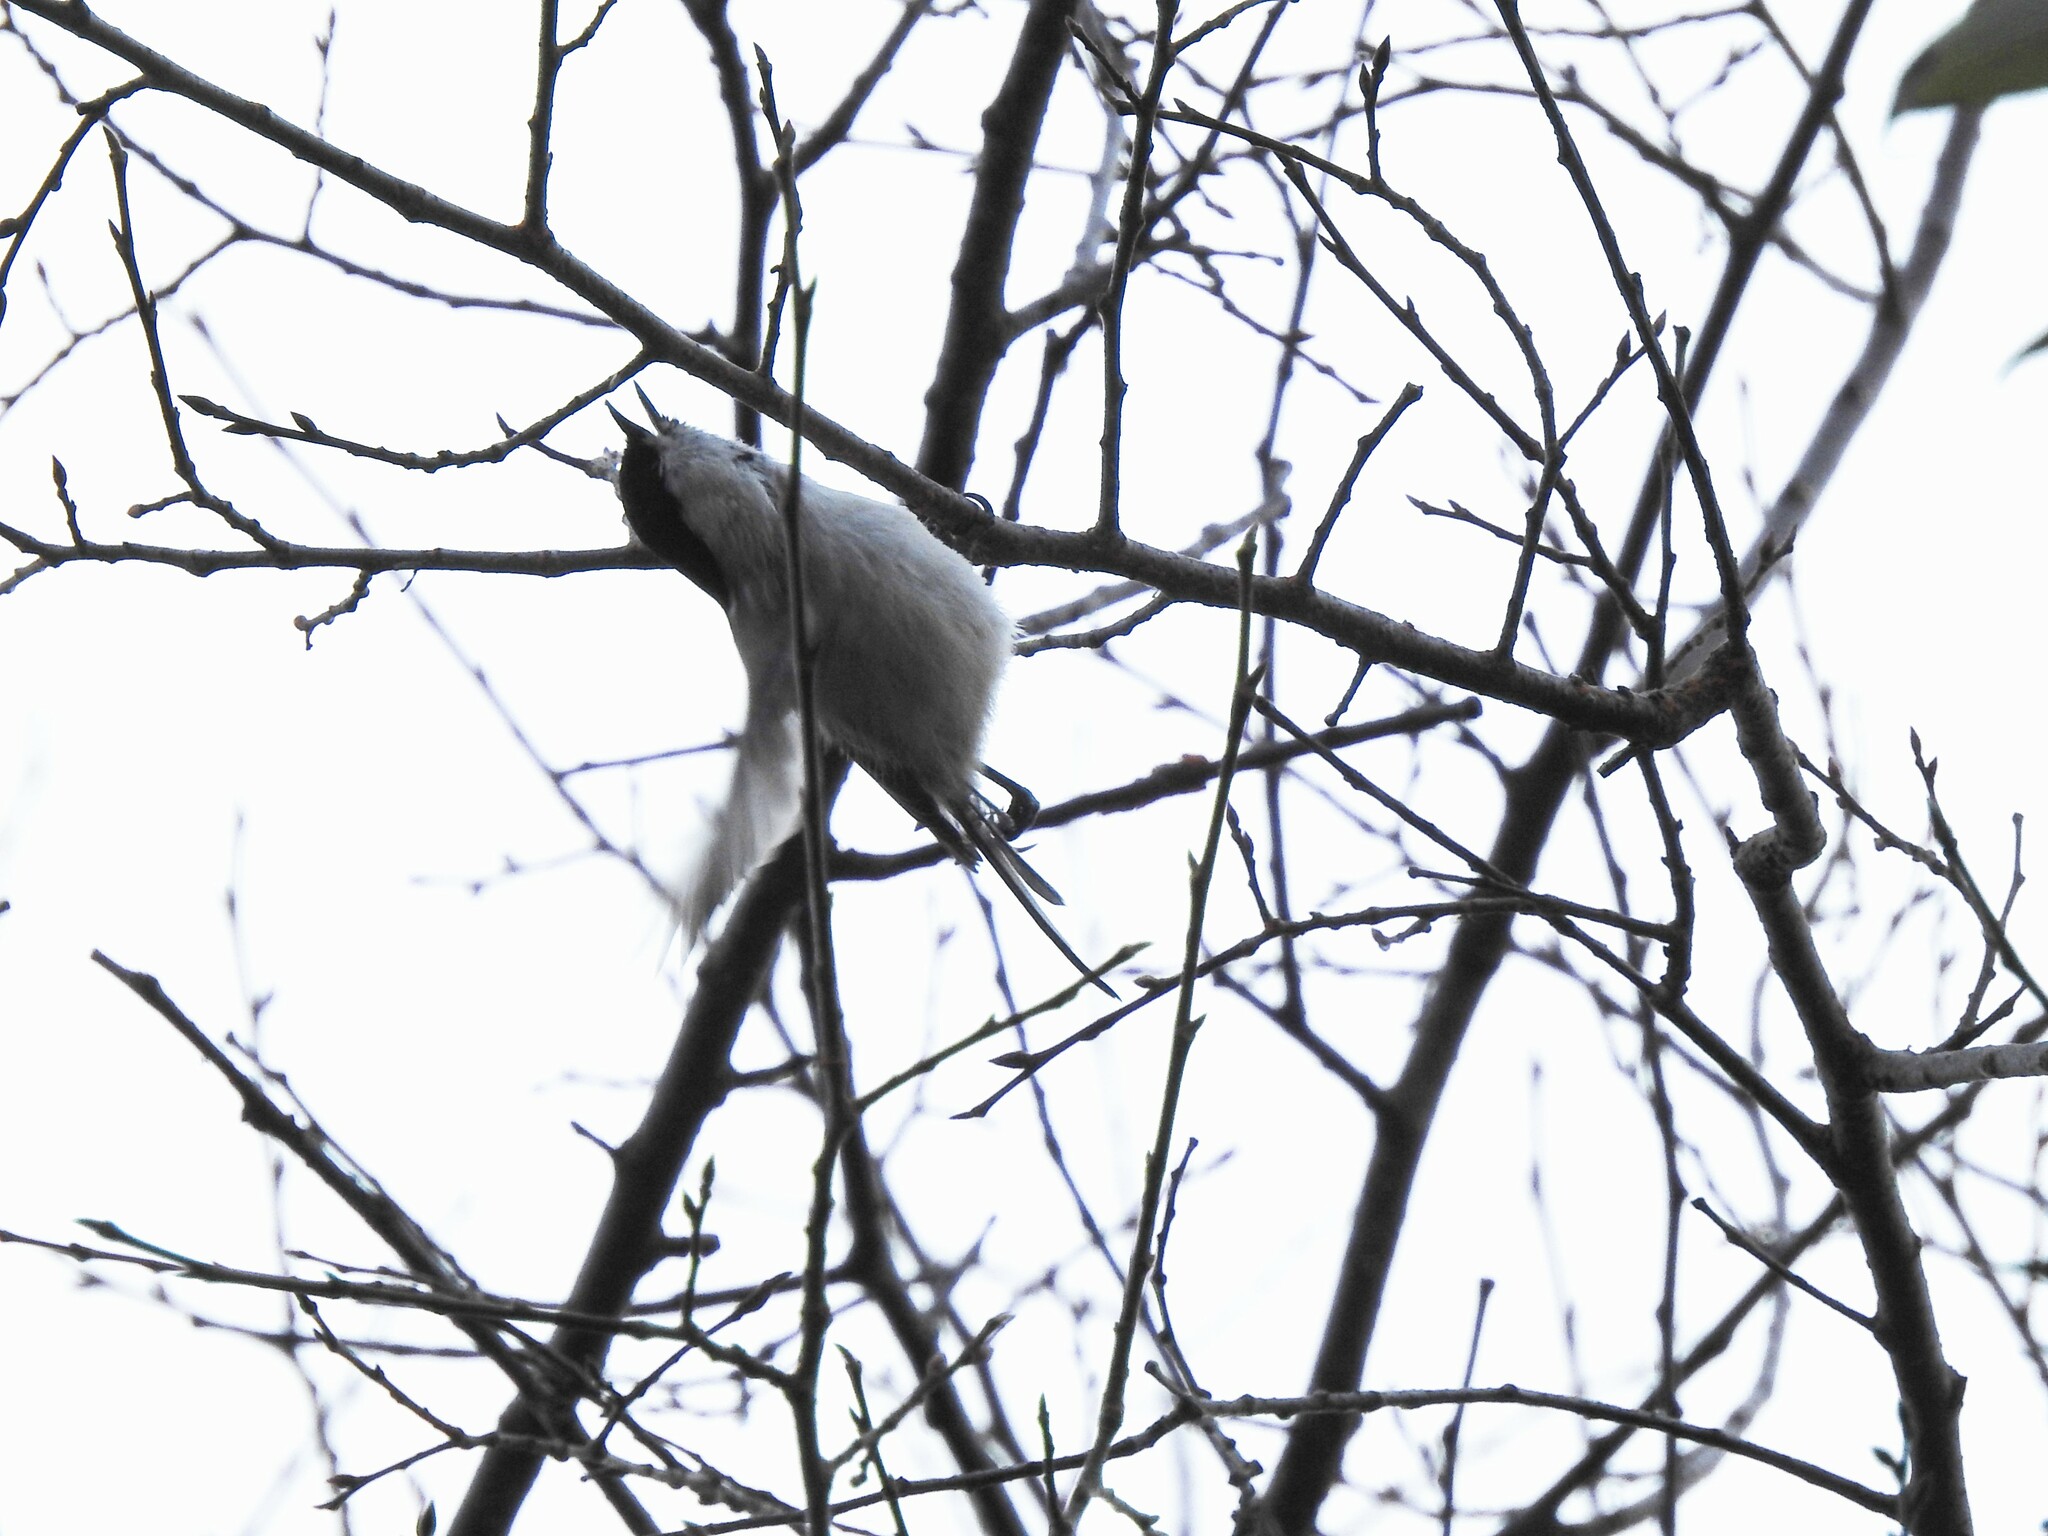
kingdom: Animalia
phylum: Chordata
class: Aves
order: Passeriformes
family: Paridae
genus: Poecile
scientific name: Poecile montanus
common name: Willow tit
